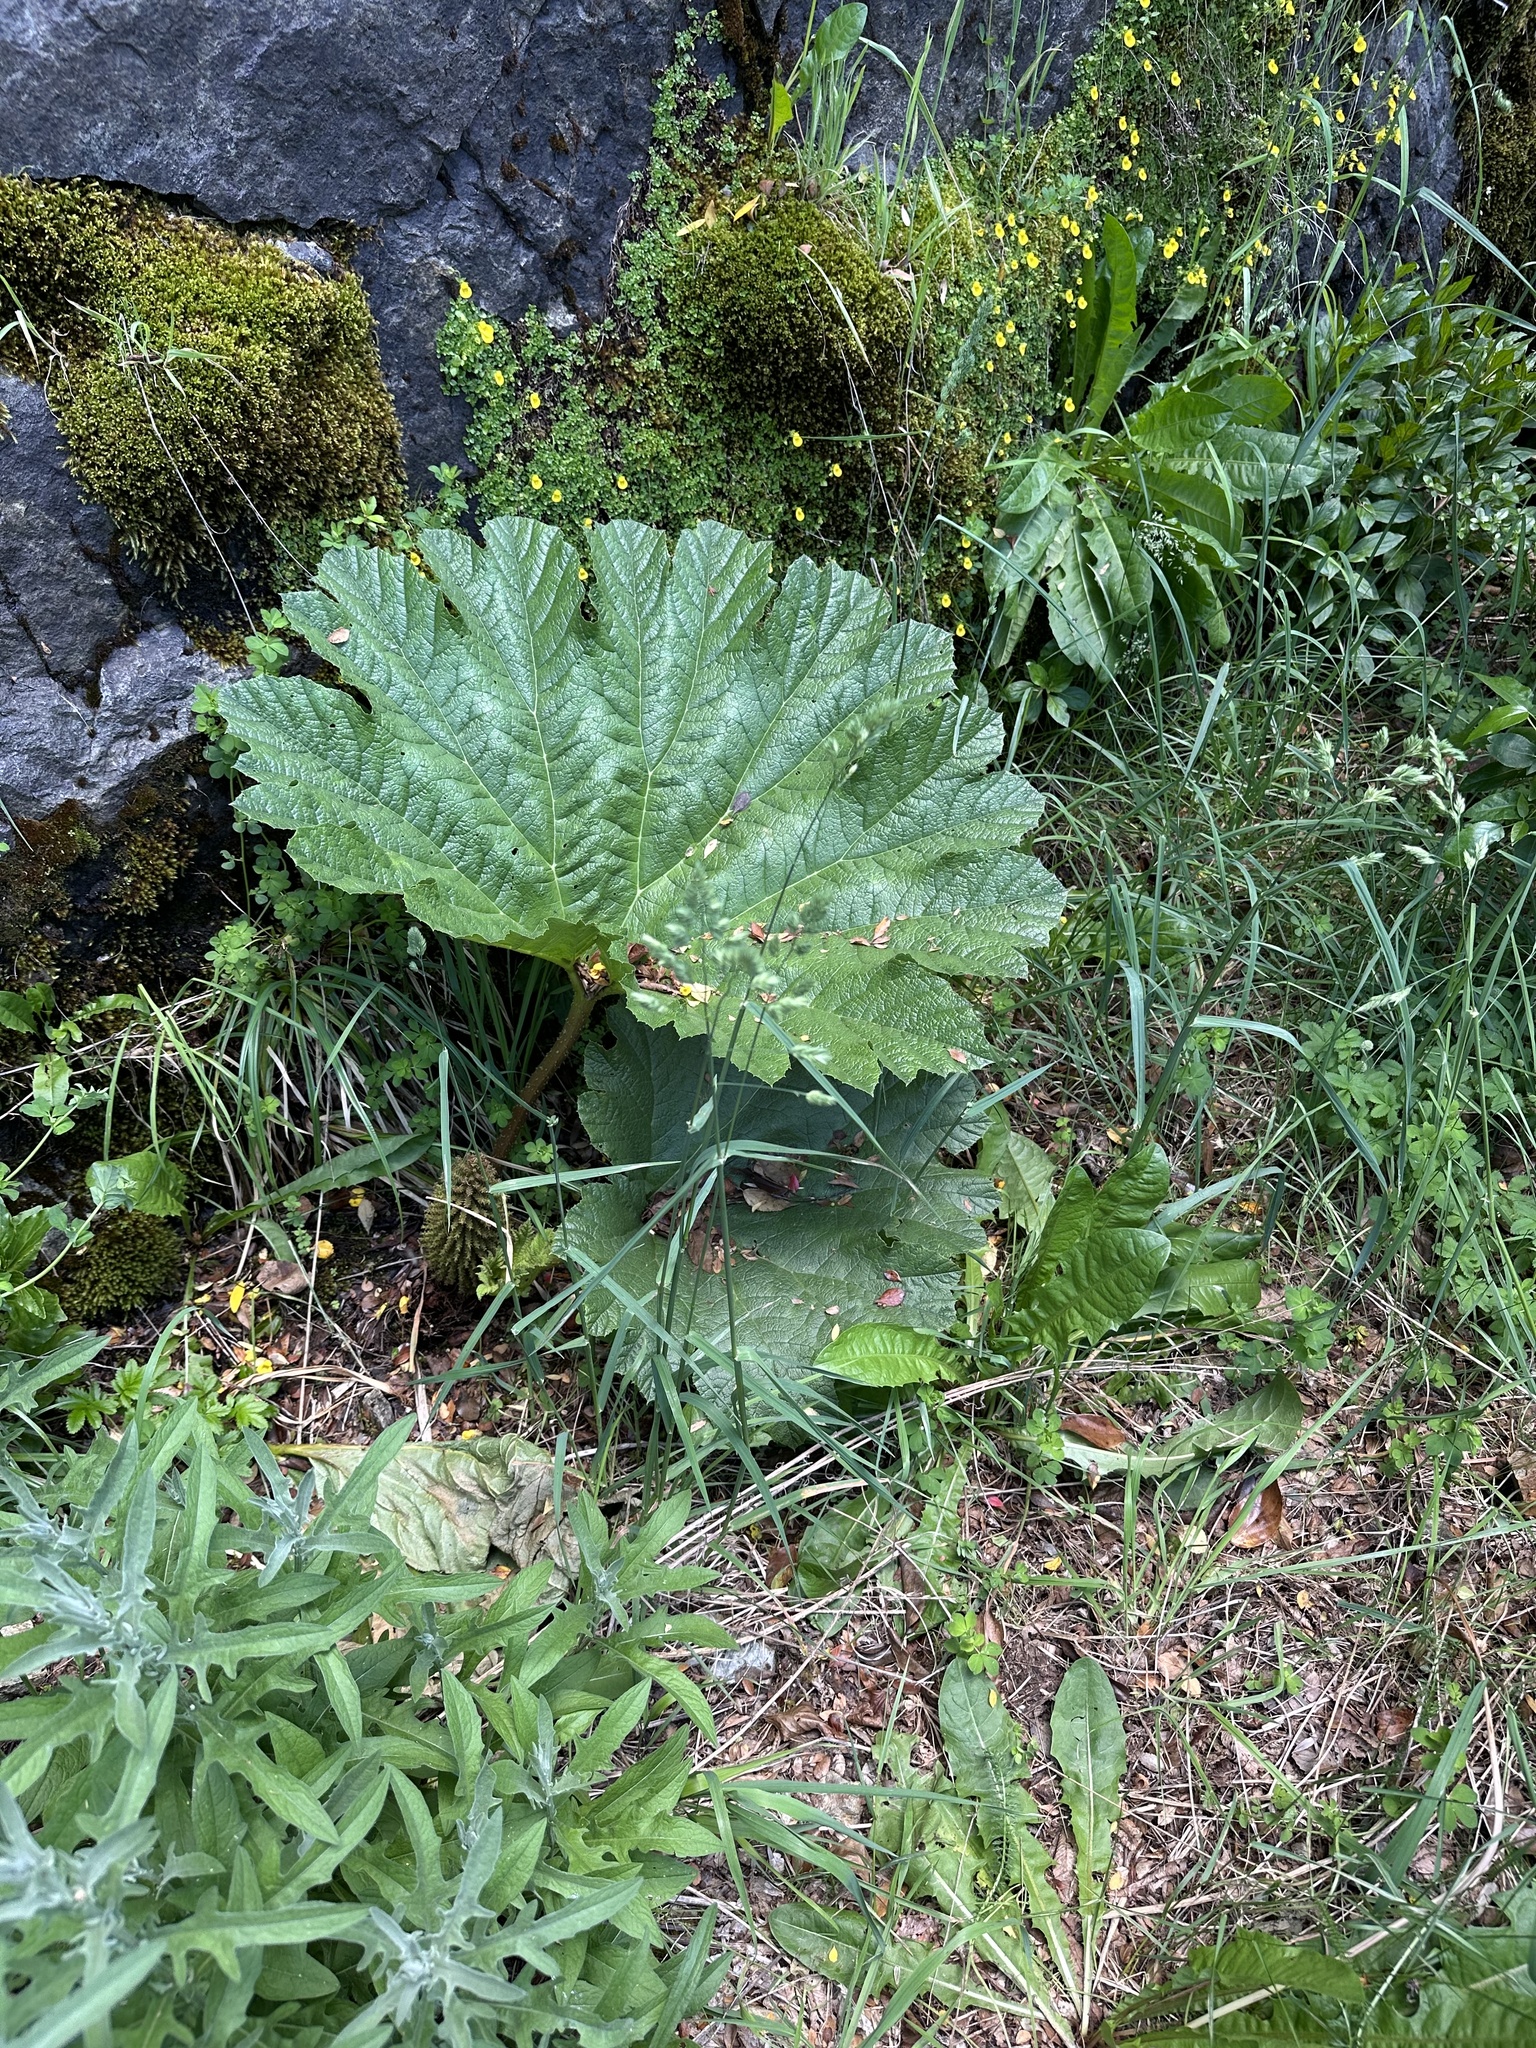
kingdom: Plantae
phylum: Tracheophyta
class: Magnoliopsida
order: Gunnerales
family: Gunneraceae
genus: Gunnera
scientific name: Gunnera tinctoria
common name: Giant-rhubarb
